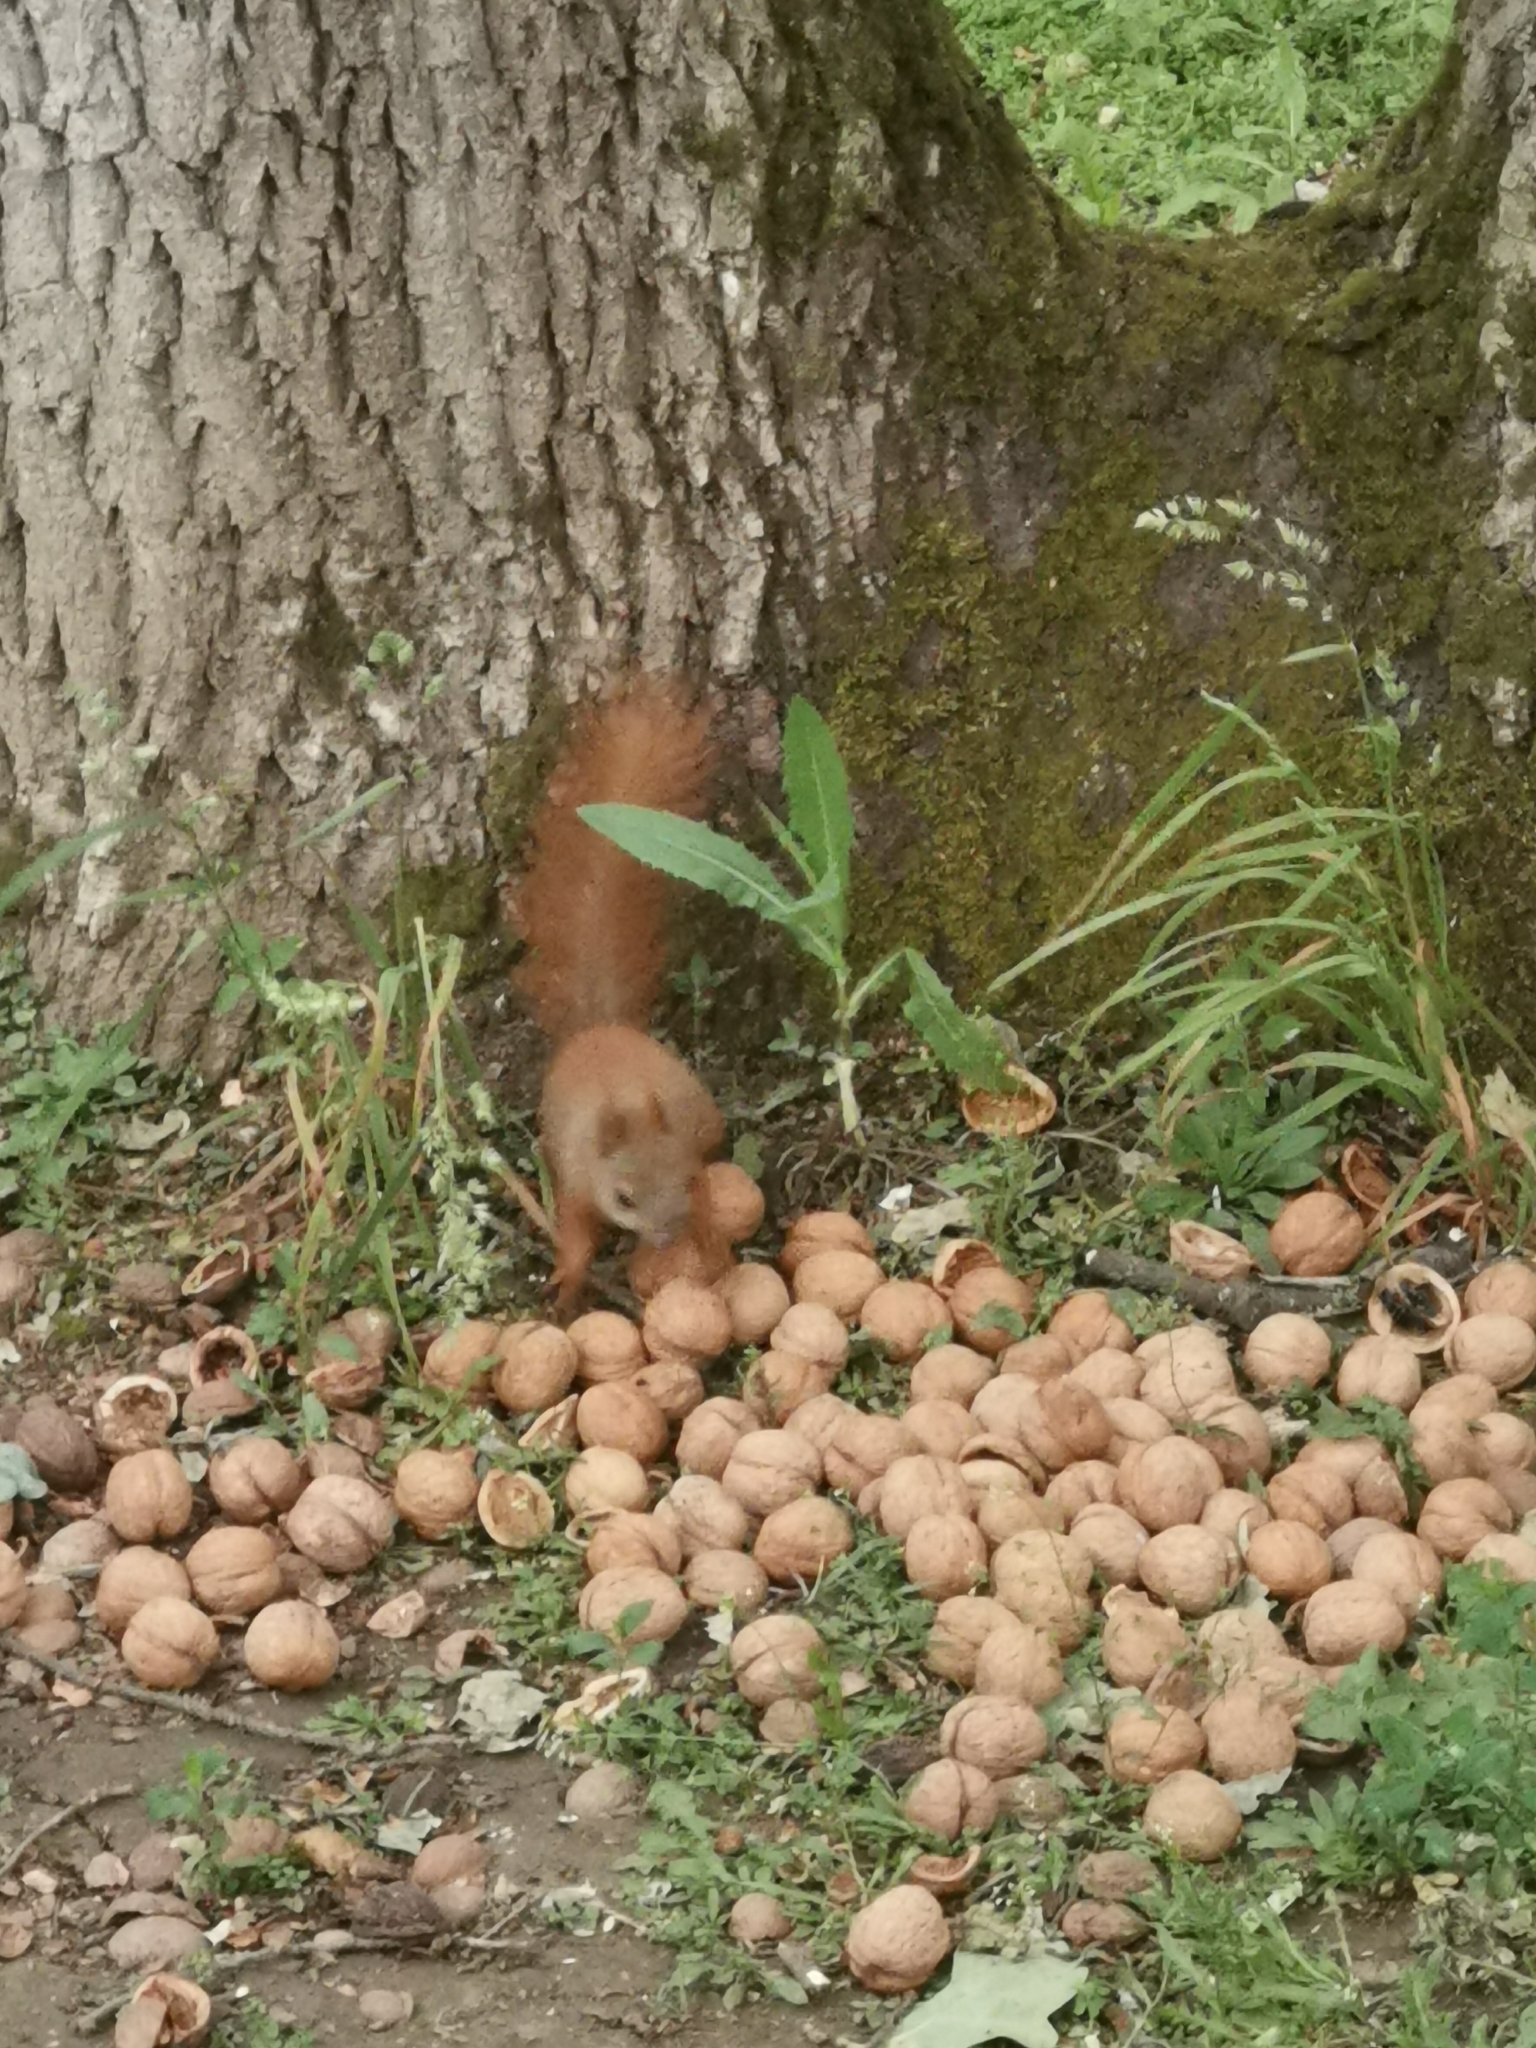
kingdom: Animalia
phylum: Chordata
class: Mammalia
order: Rodentia
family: Sciuridae
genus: Sciurus
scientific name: Sciurus vulgaris
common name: Eurasian red squirrel
